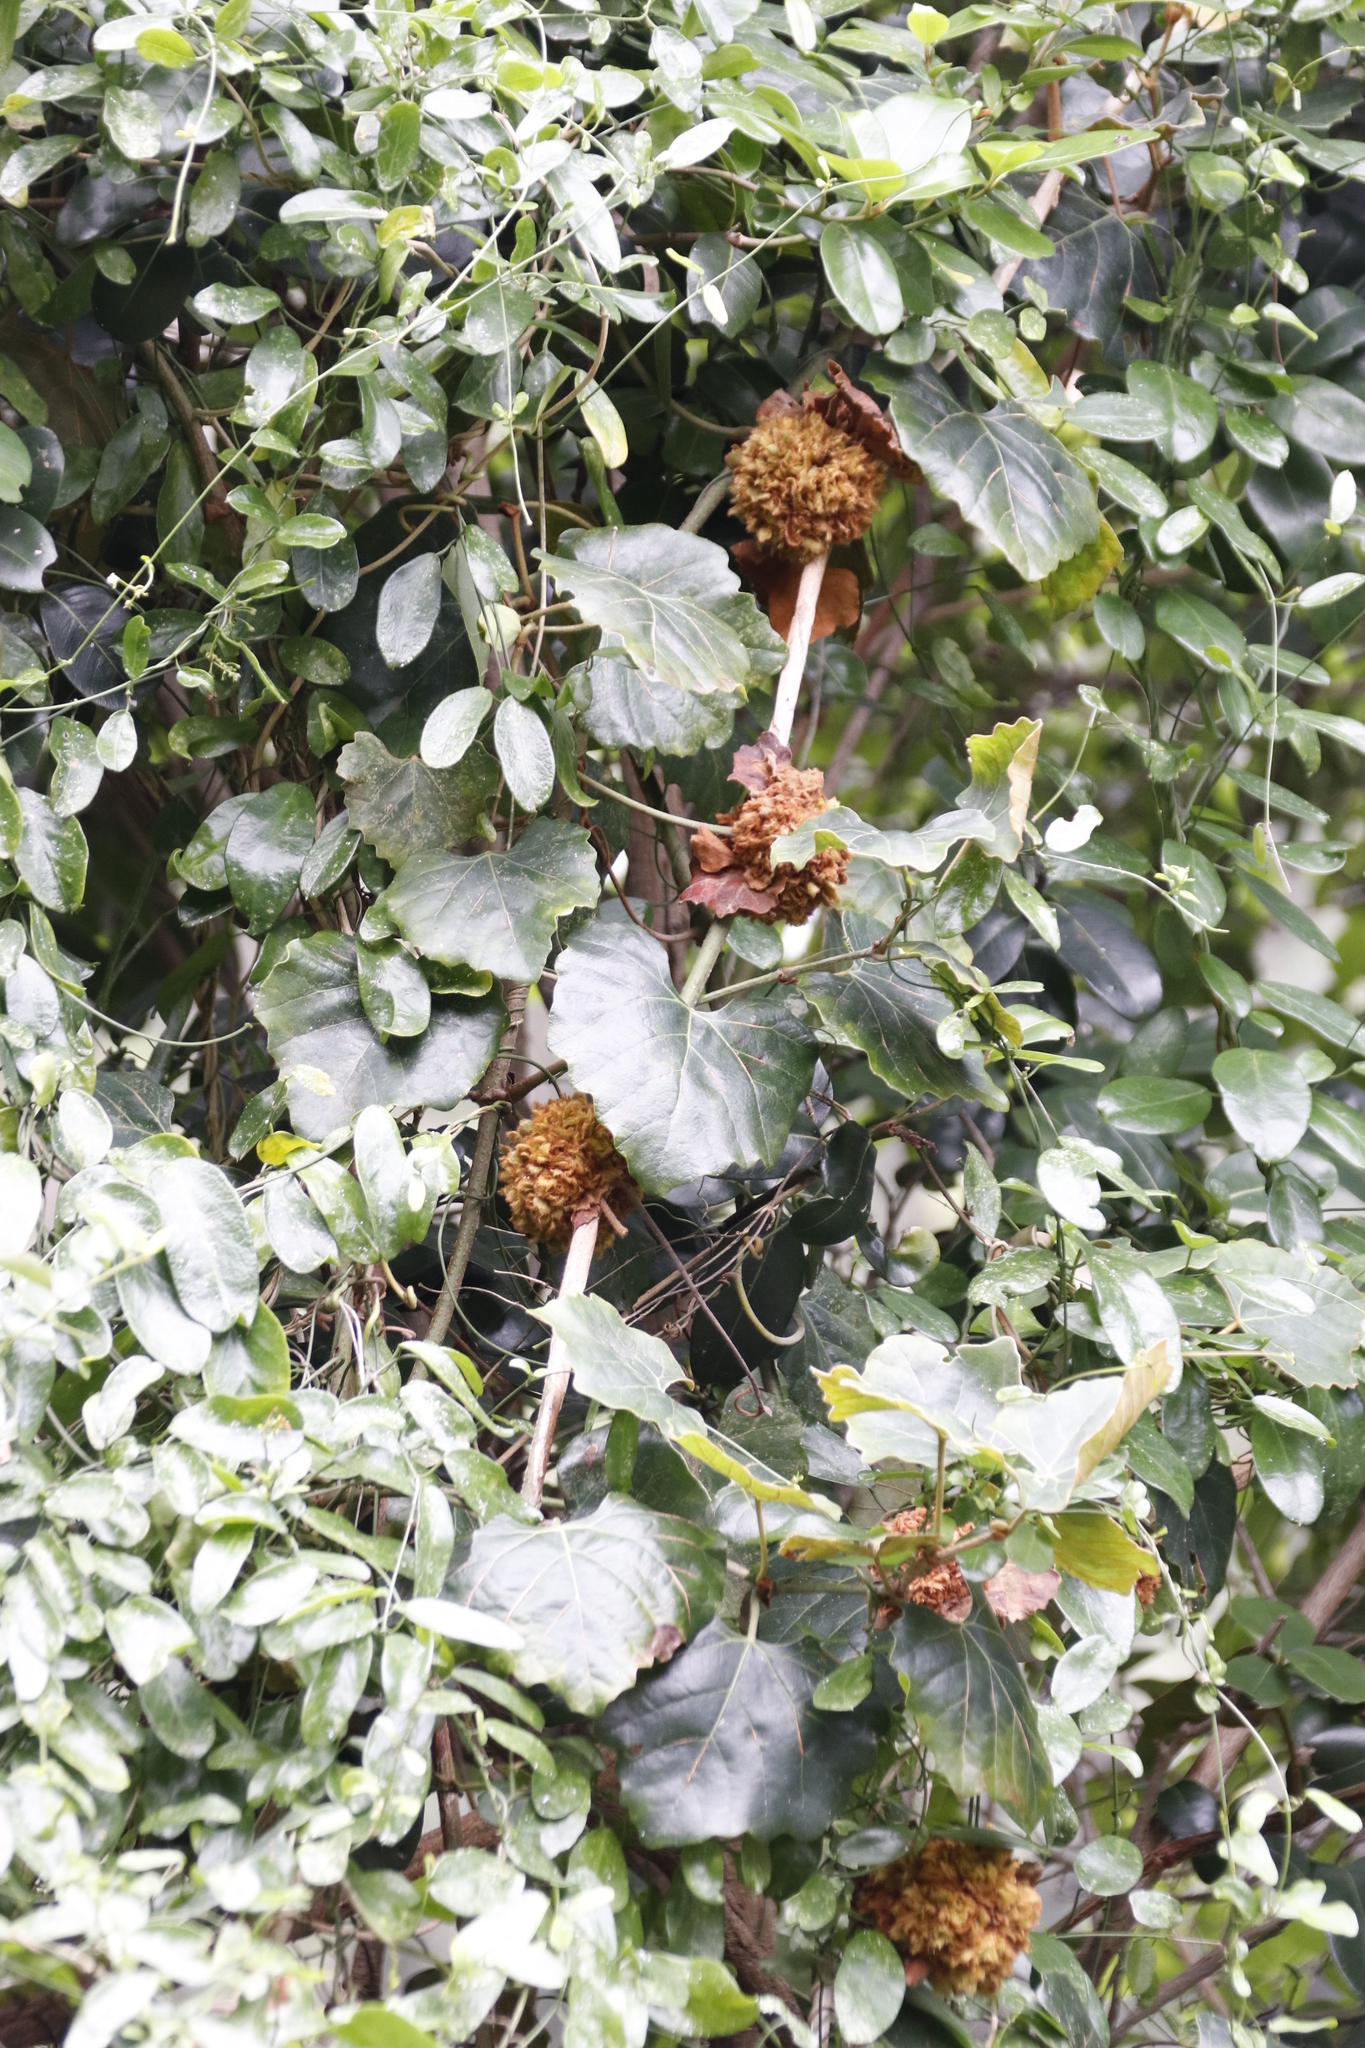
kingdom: Plantae
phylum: Tracheophyta
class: Magnoliopsida
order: Vitales
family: Vitaceae
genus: Rhoicissus
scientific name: Rhoicissus tomentosa
